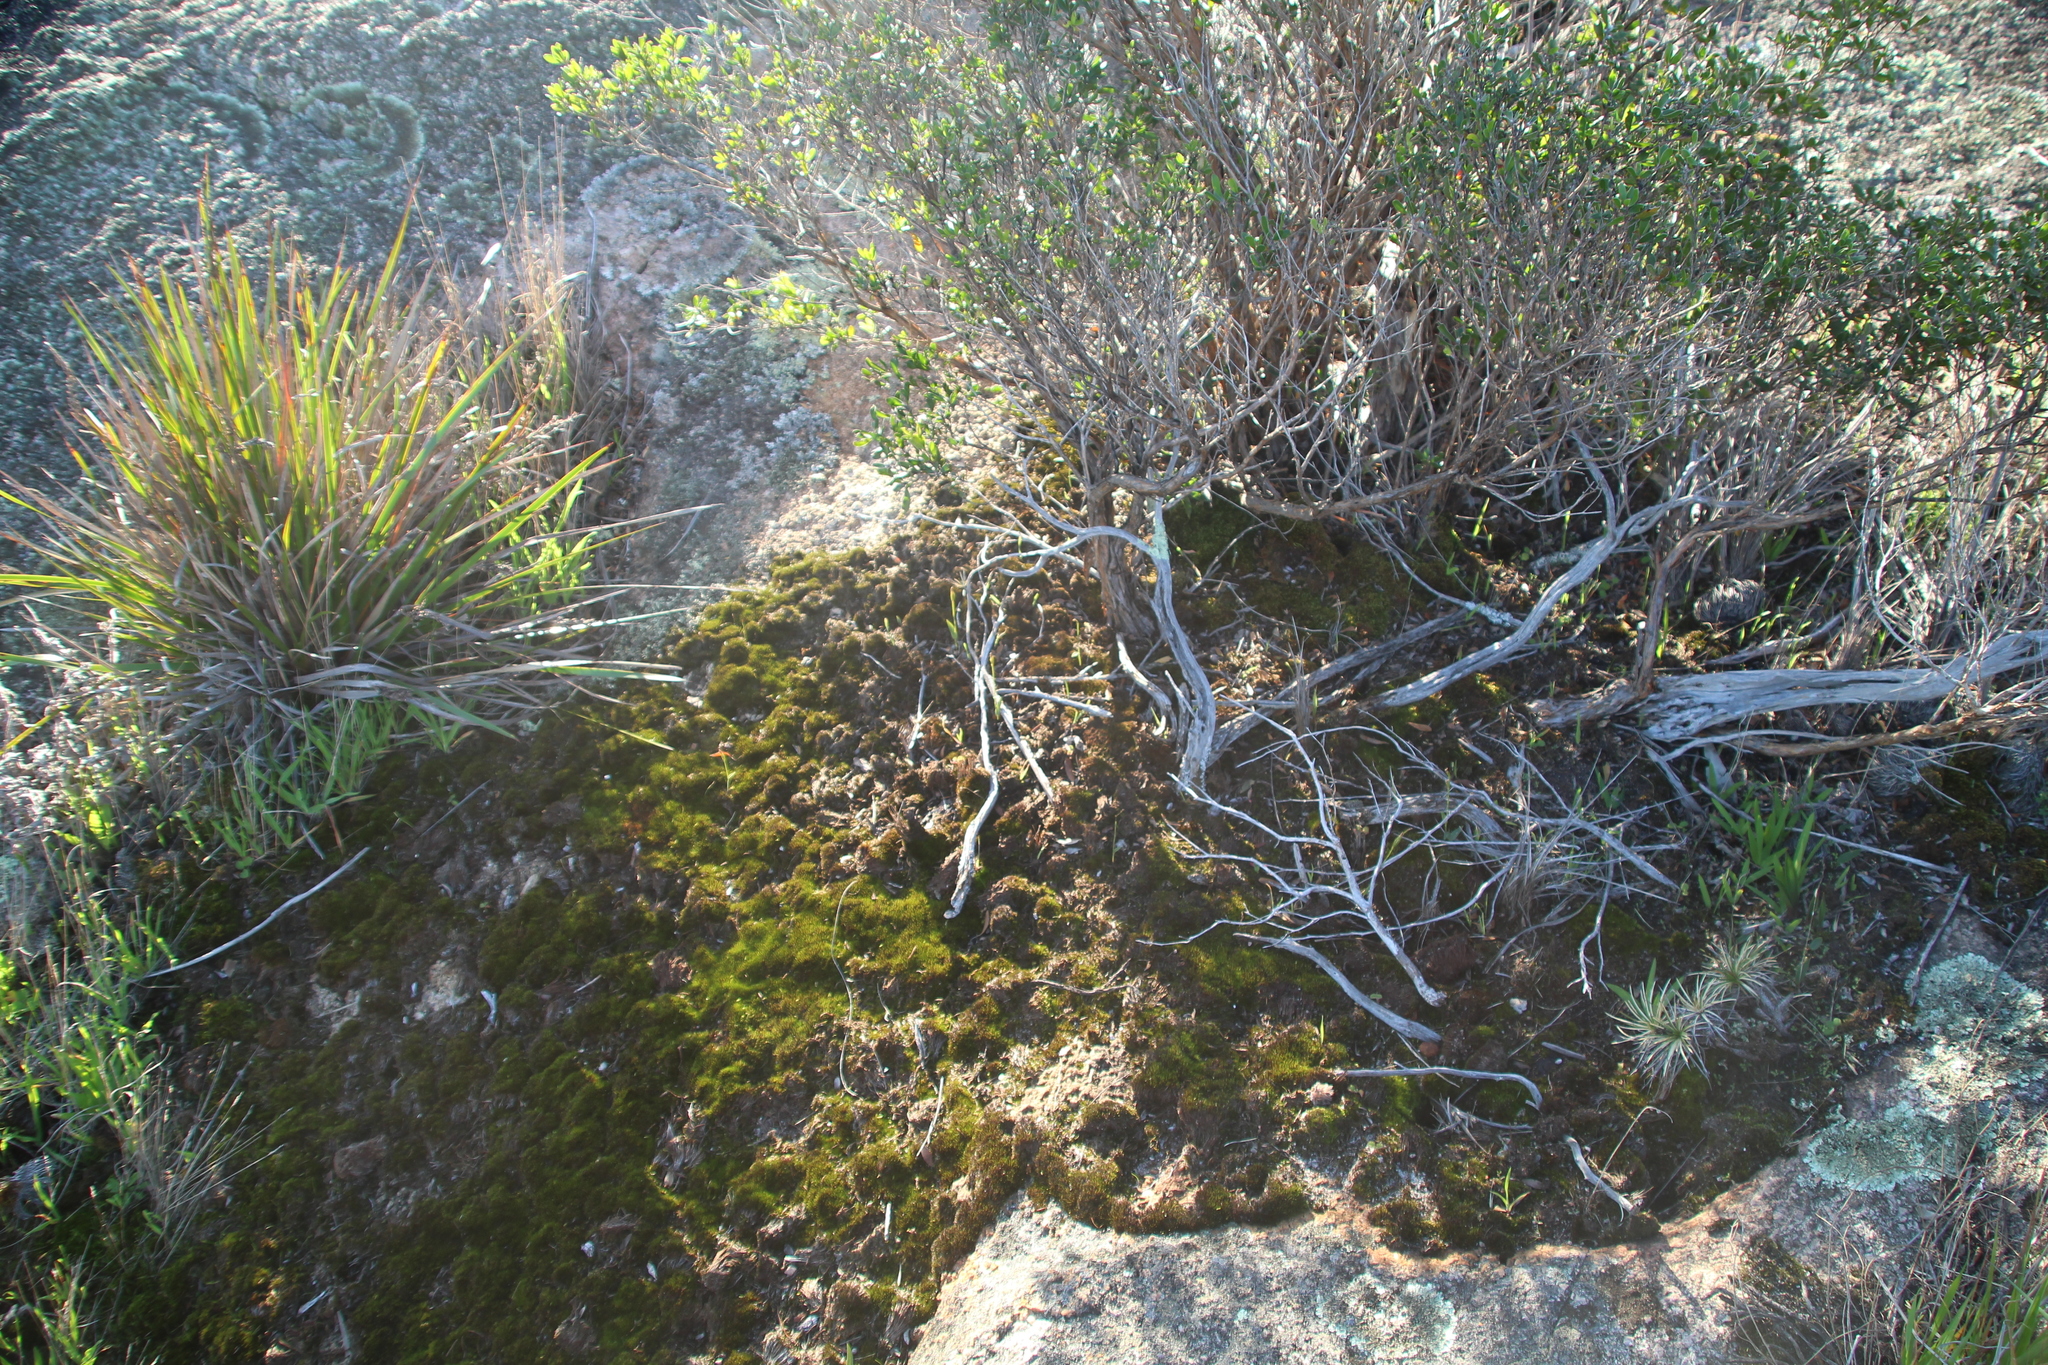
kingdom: Plantae
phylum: Tracheophyta
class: Liliopsida
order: Asparagales
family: Orchidaceae
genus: Eriochilus
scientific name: Eriochilus pulchellus
